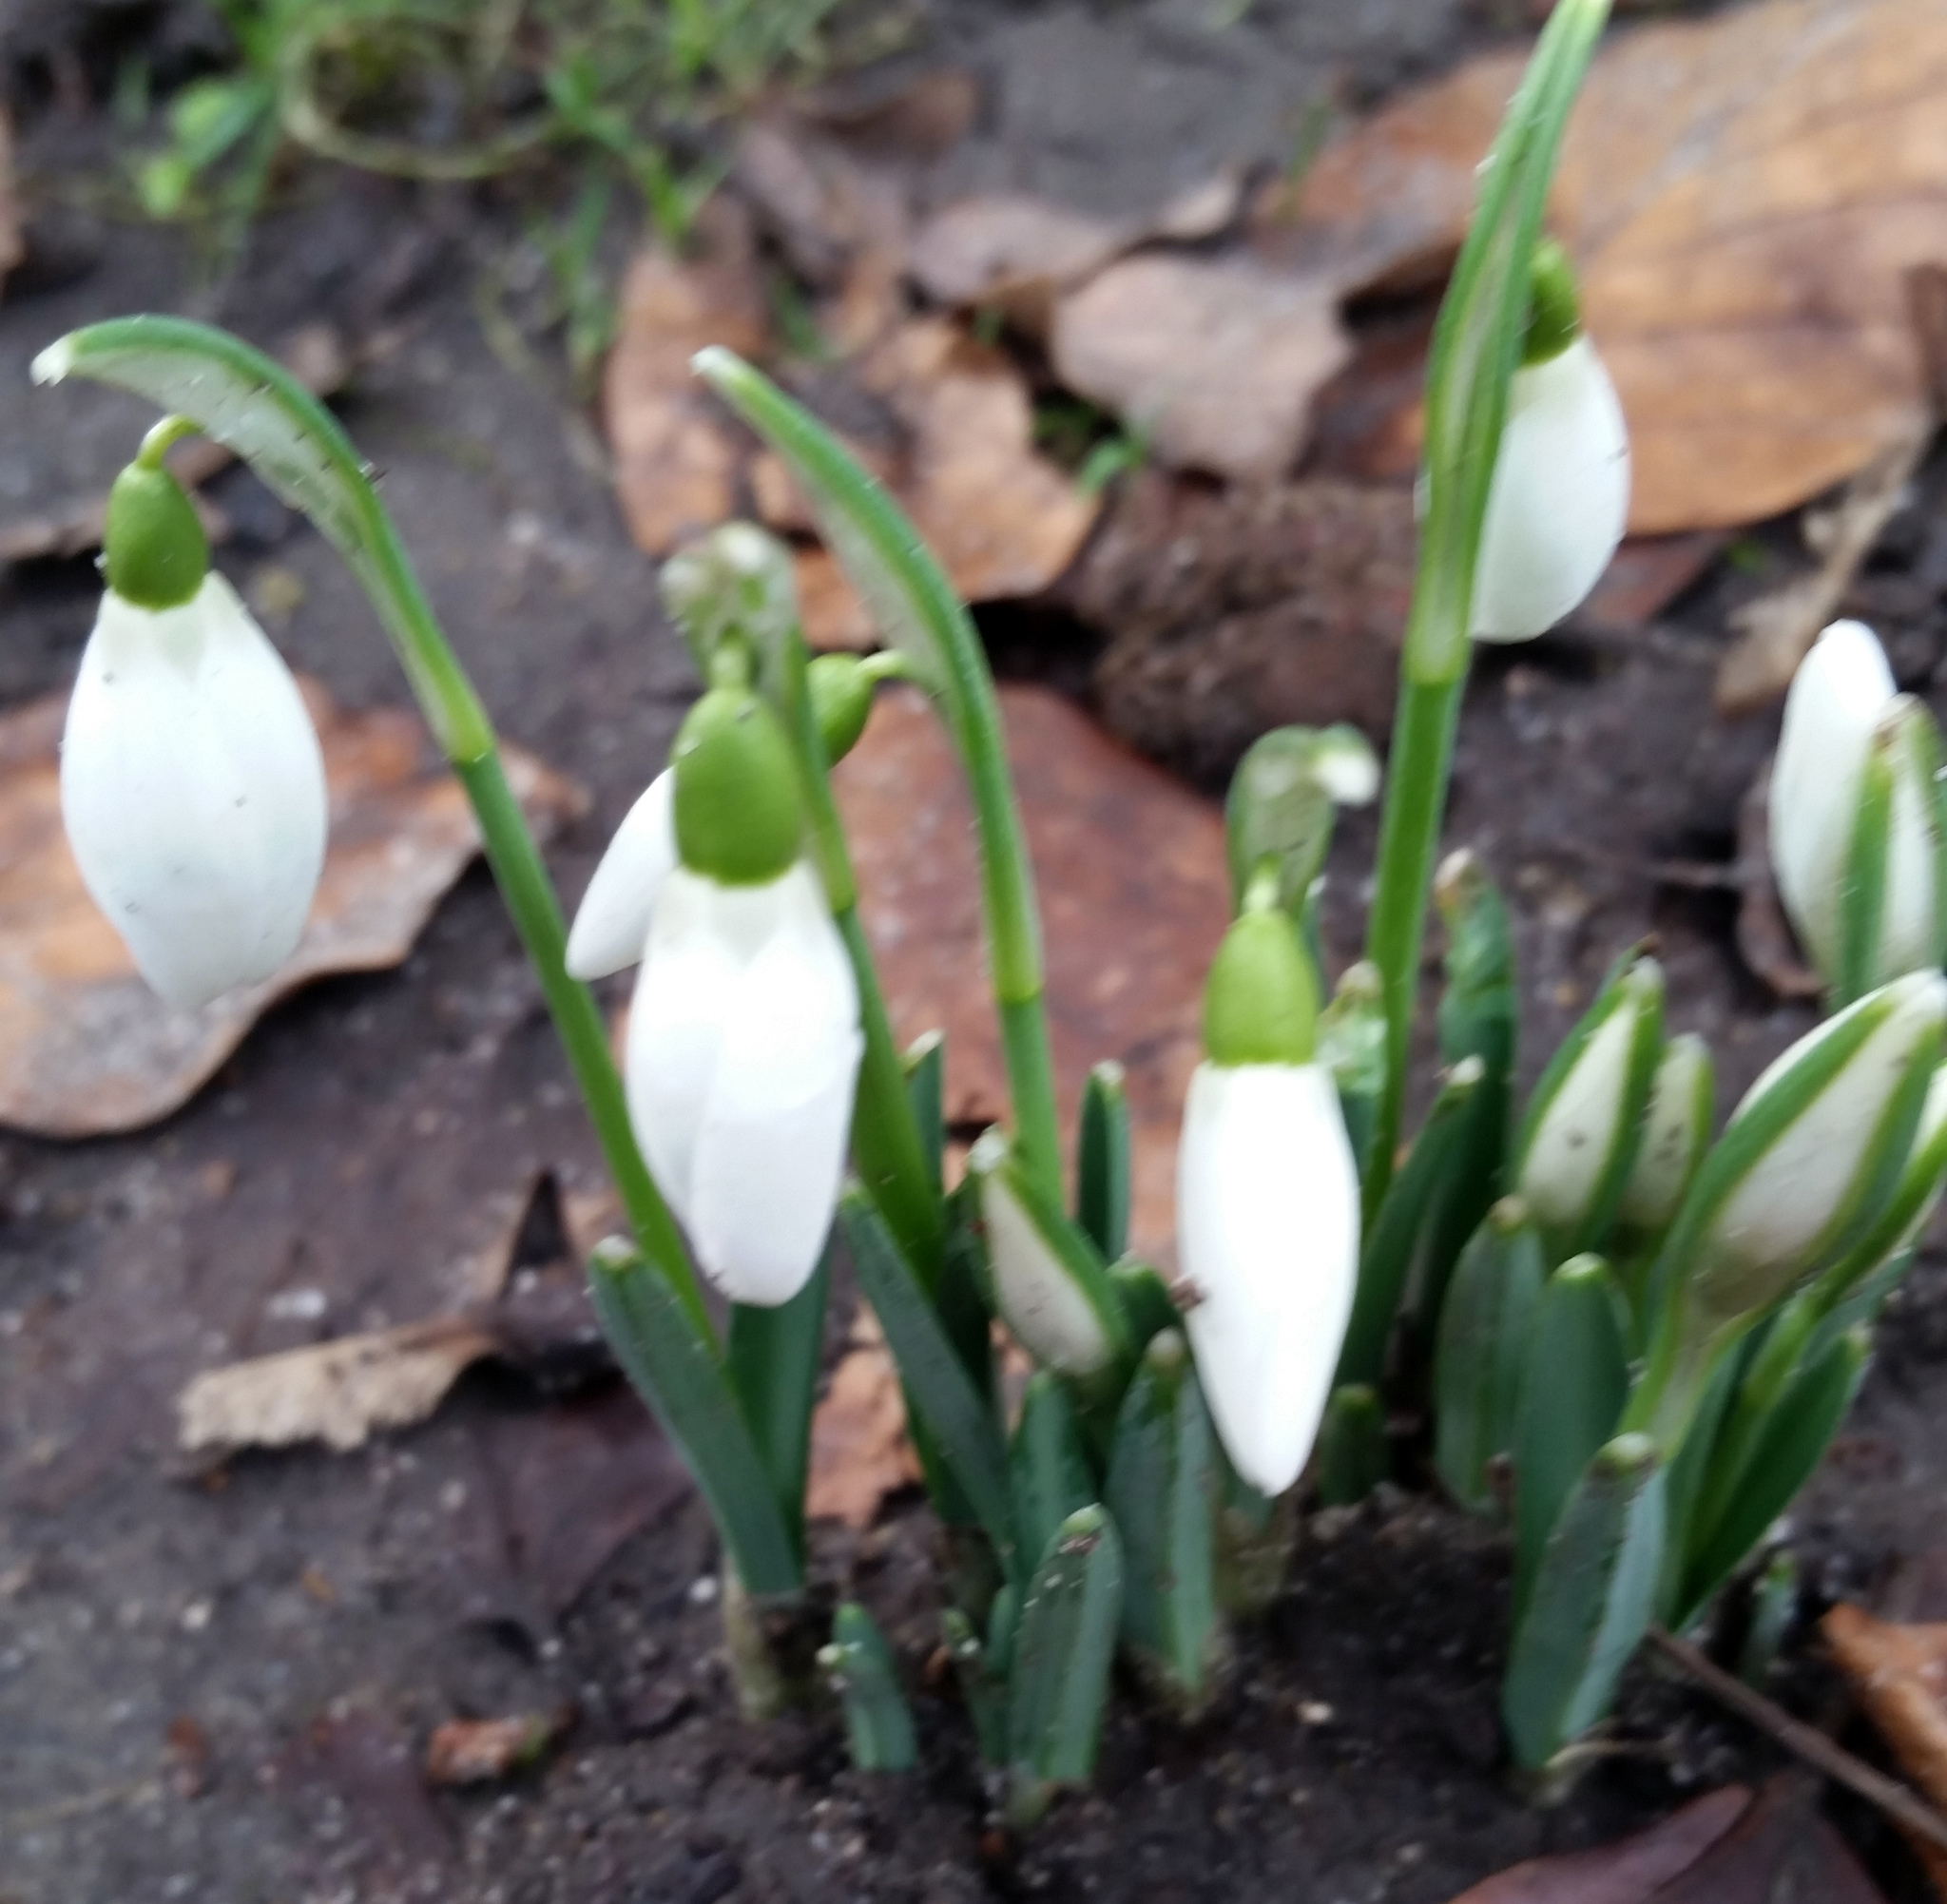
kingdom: Plantae
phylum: Tracheophyta
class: Liliopsida
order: Asparagales
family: Amaryllidaceae
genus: Galanthus
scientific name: Galanthus nivalis
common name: Snowdrop
